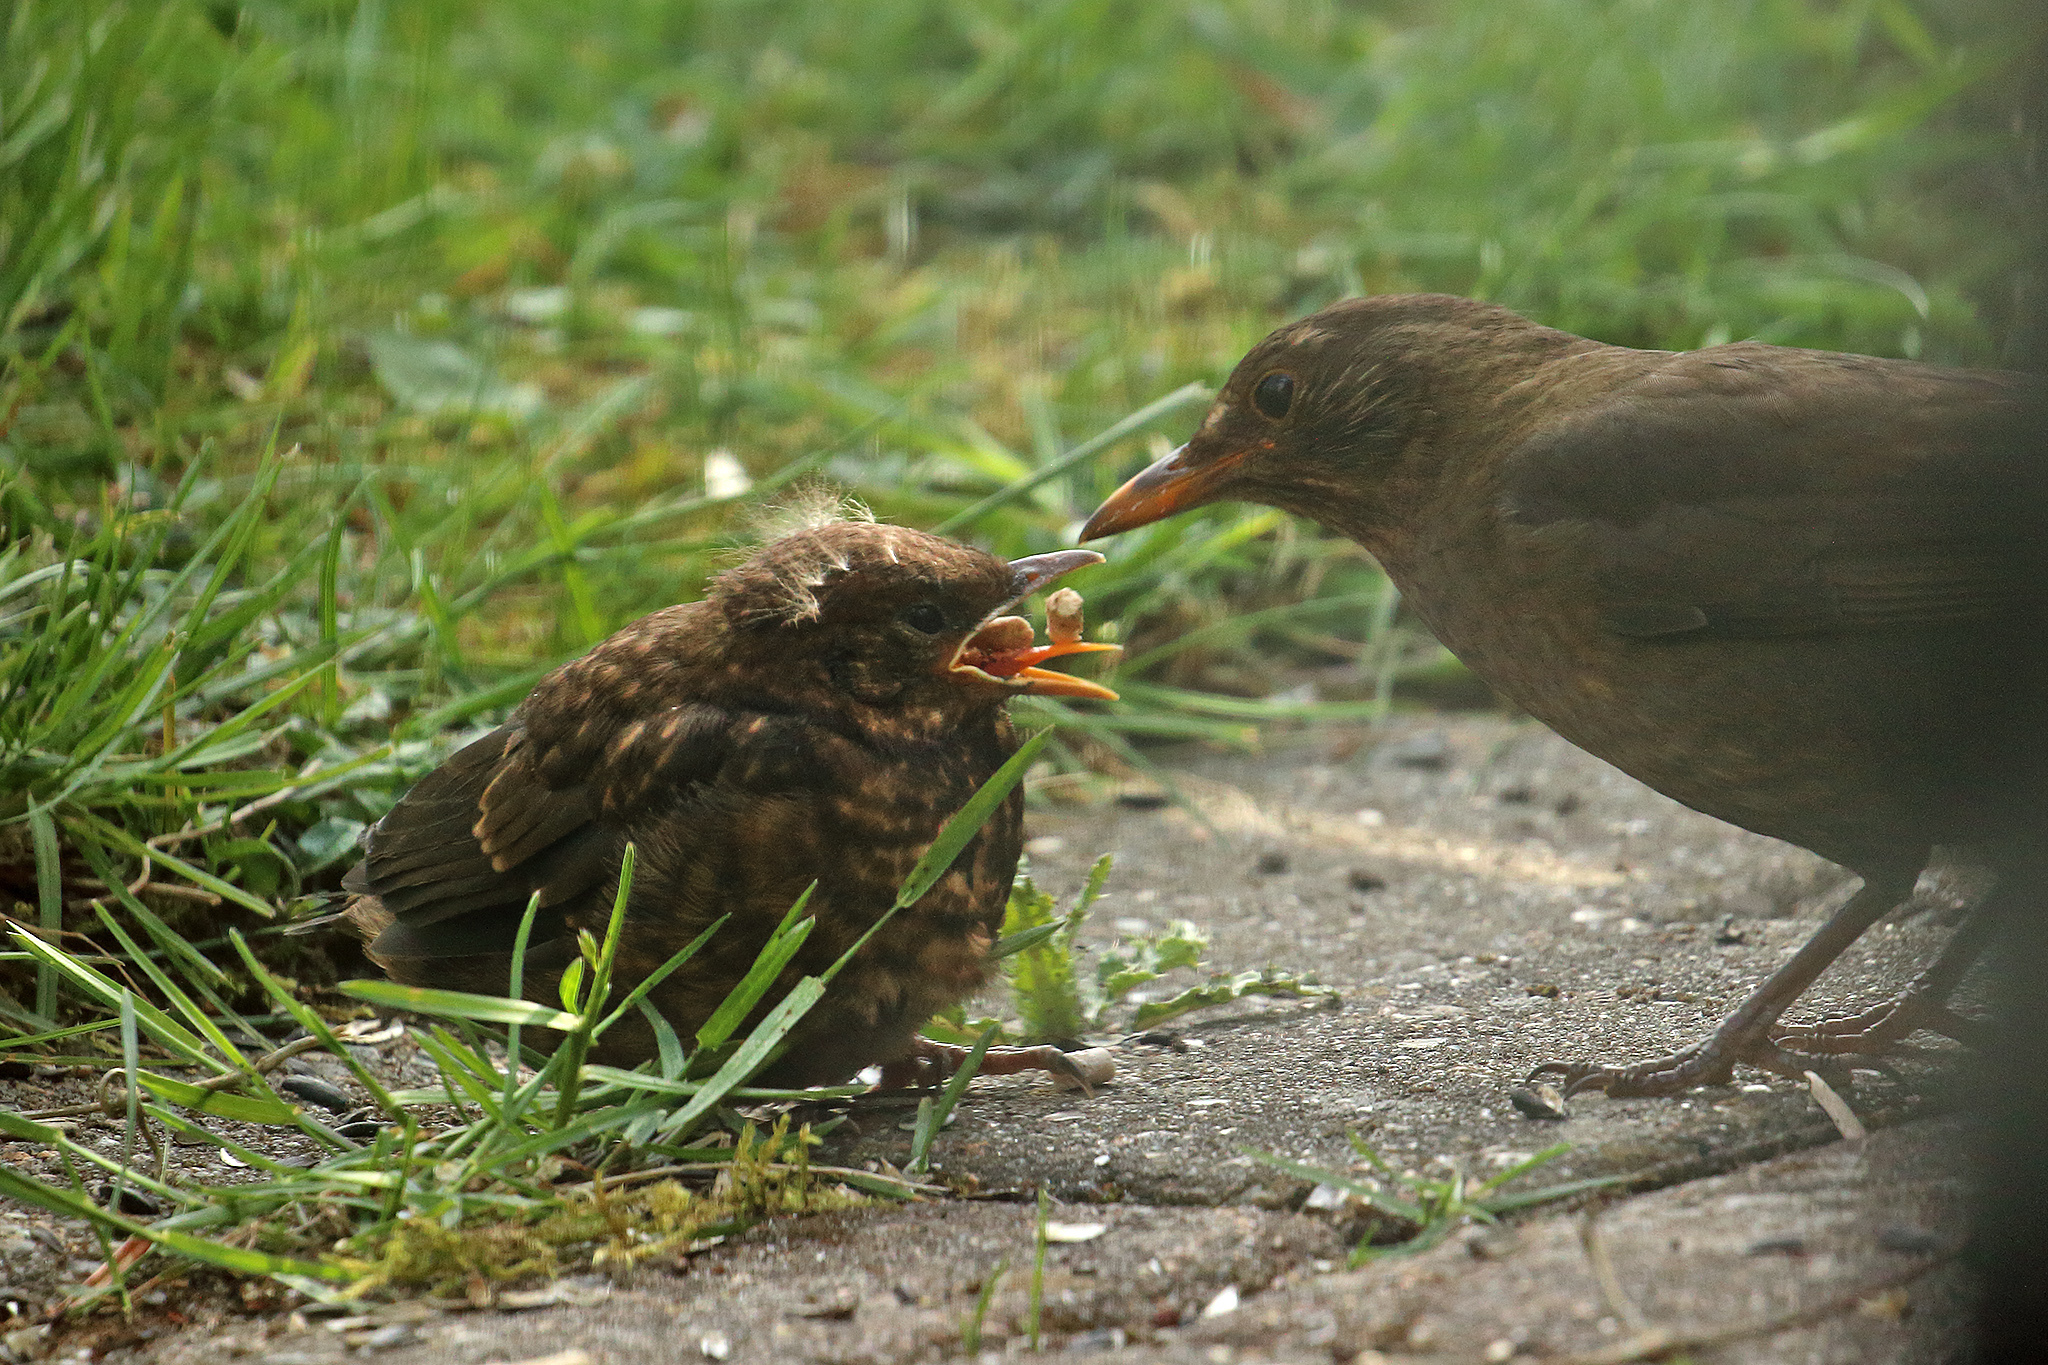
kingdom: Animalia
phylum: Chordata
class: Aves
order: Passeriformes
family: Turdidae
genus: Turdus
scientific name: Turdus merula
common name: Common blackbird
